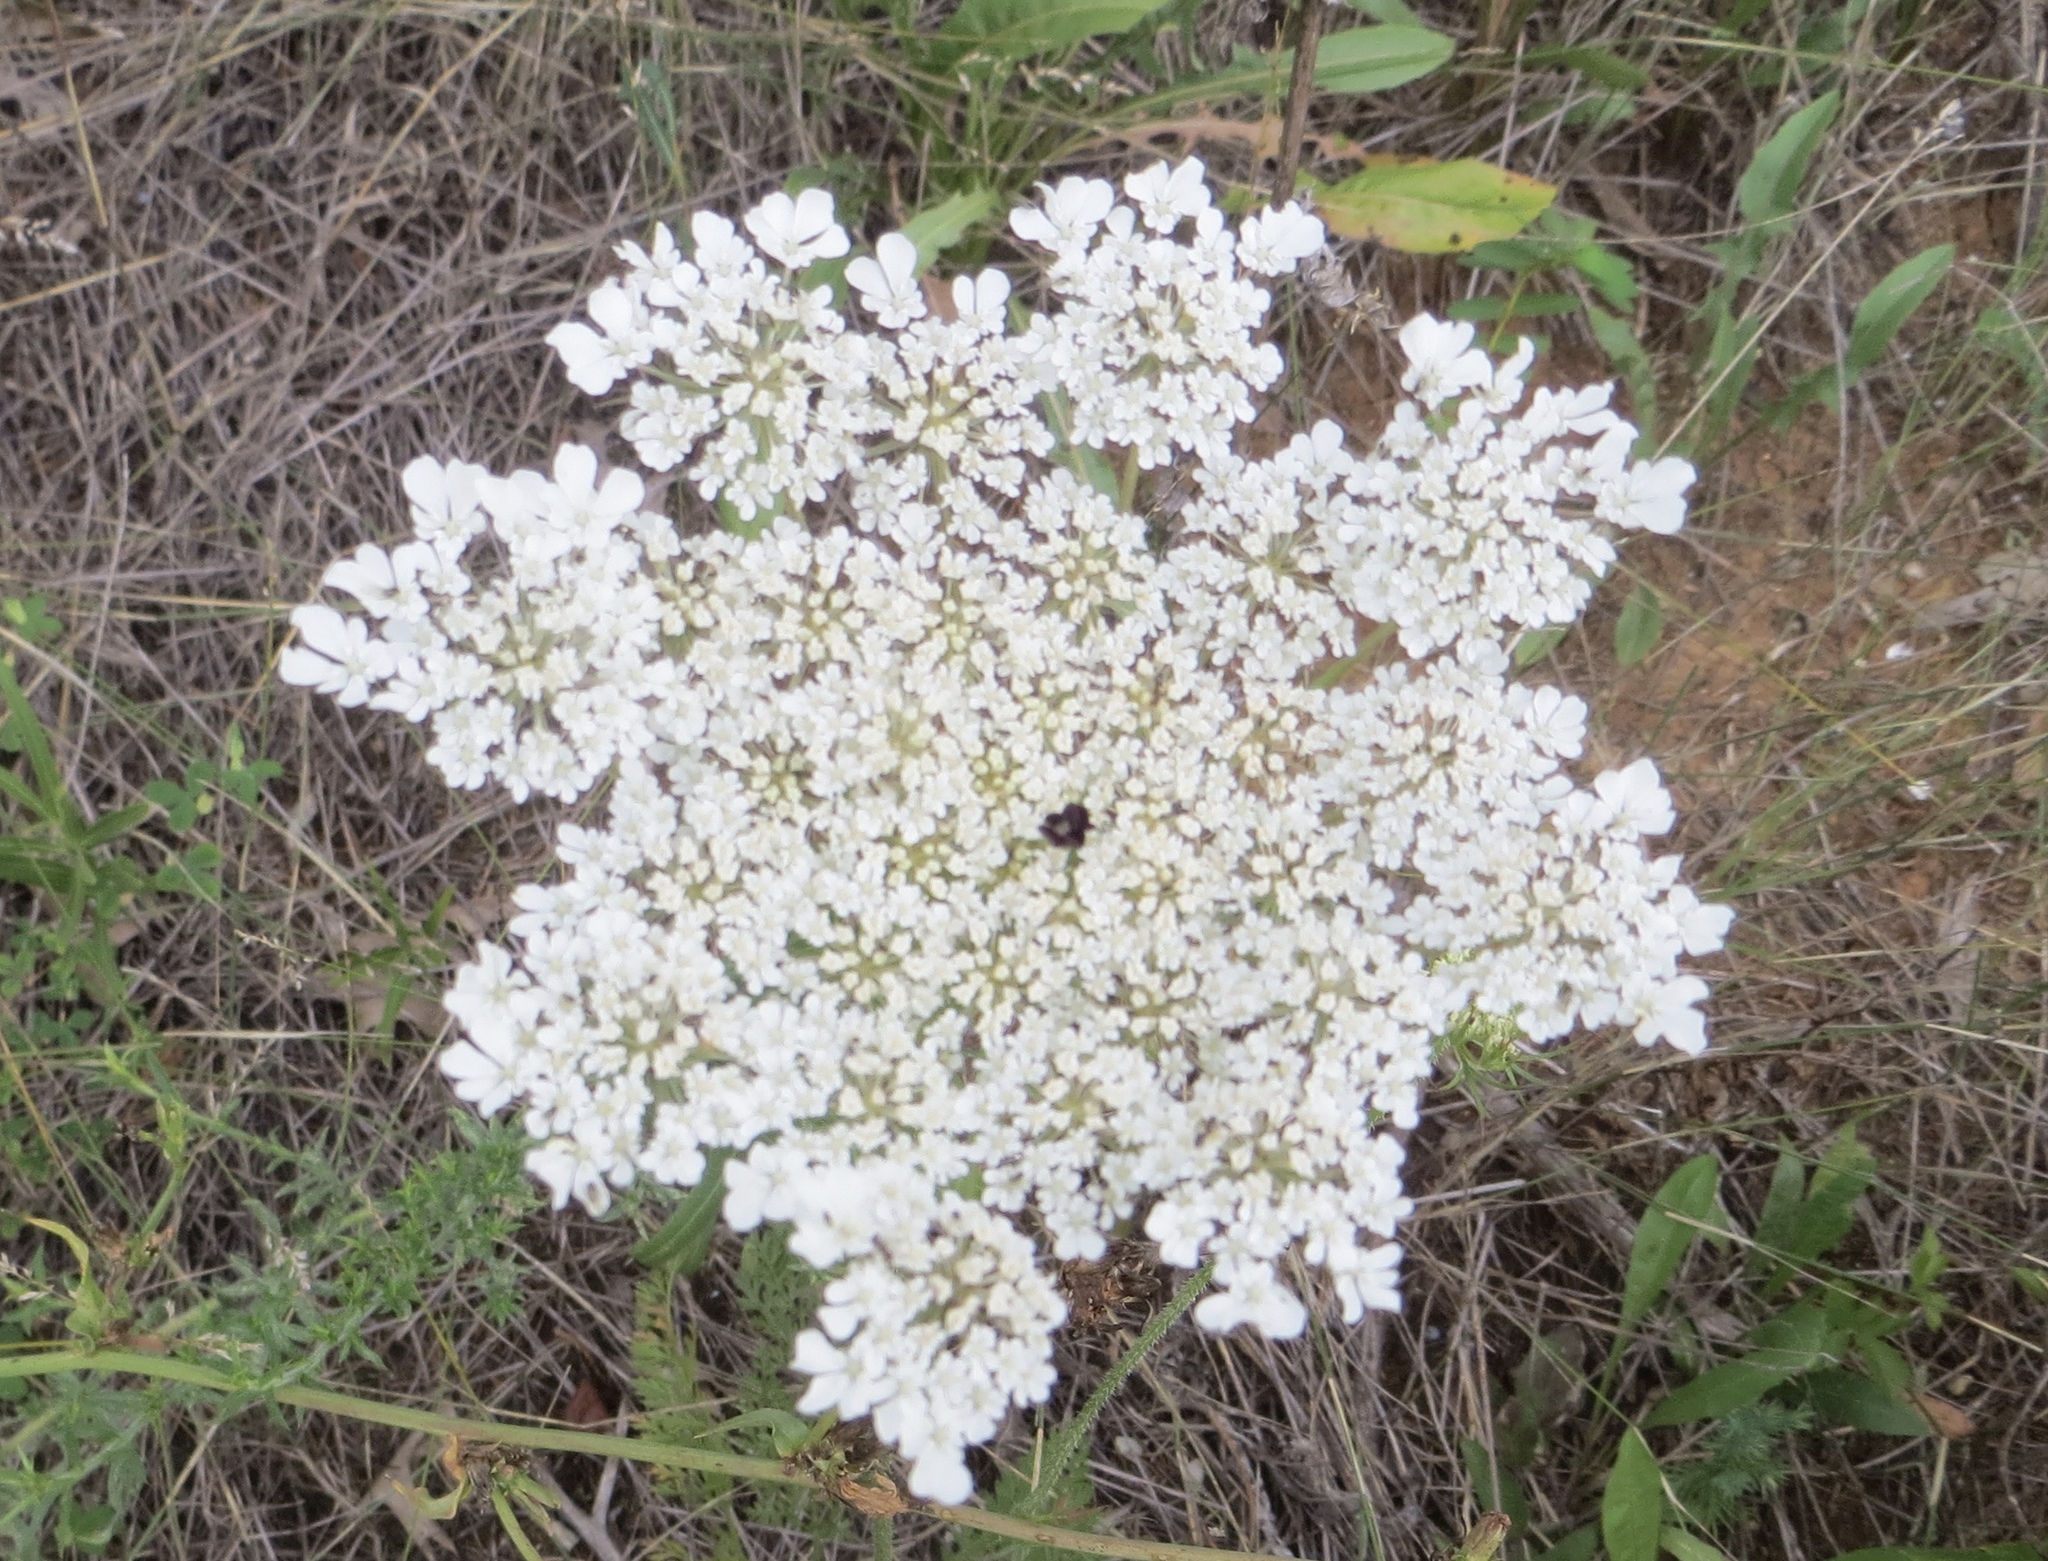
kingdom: Plantae
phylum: Tracheophyta
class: Magnoliopsida
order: Apiales
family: Apiaceae
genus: Daucus
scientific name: Daucus carota
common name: Wild carrot
